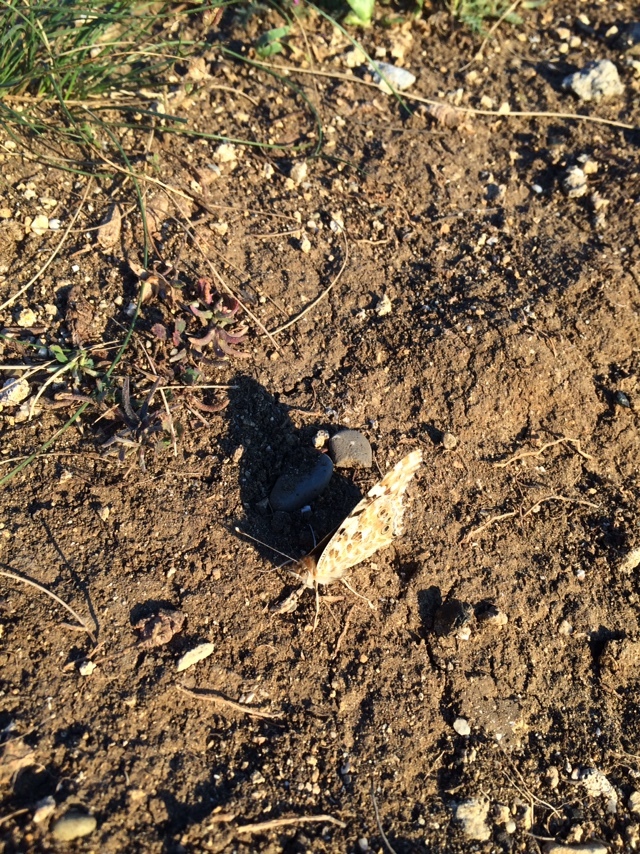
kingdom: Animalia
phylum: Arthropoda
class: Insecta
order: Lepidoptera
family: Nymphalidae
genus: Vanessa
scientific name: Vanessa cardui
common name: Painted lady
